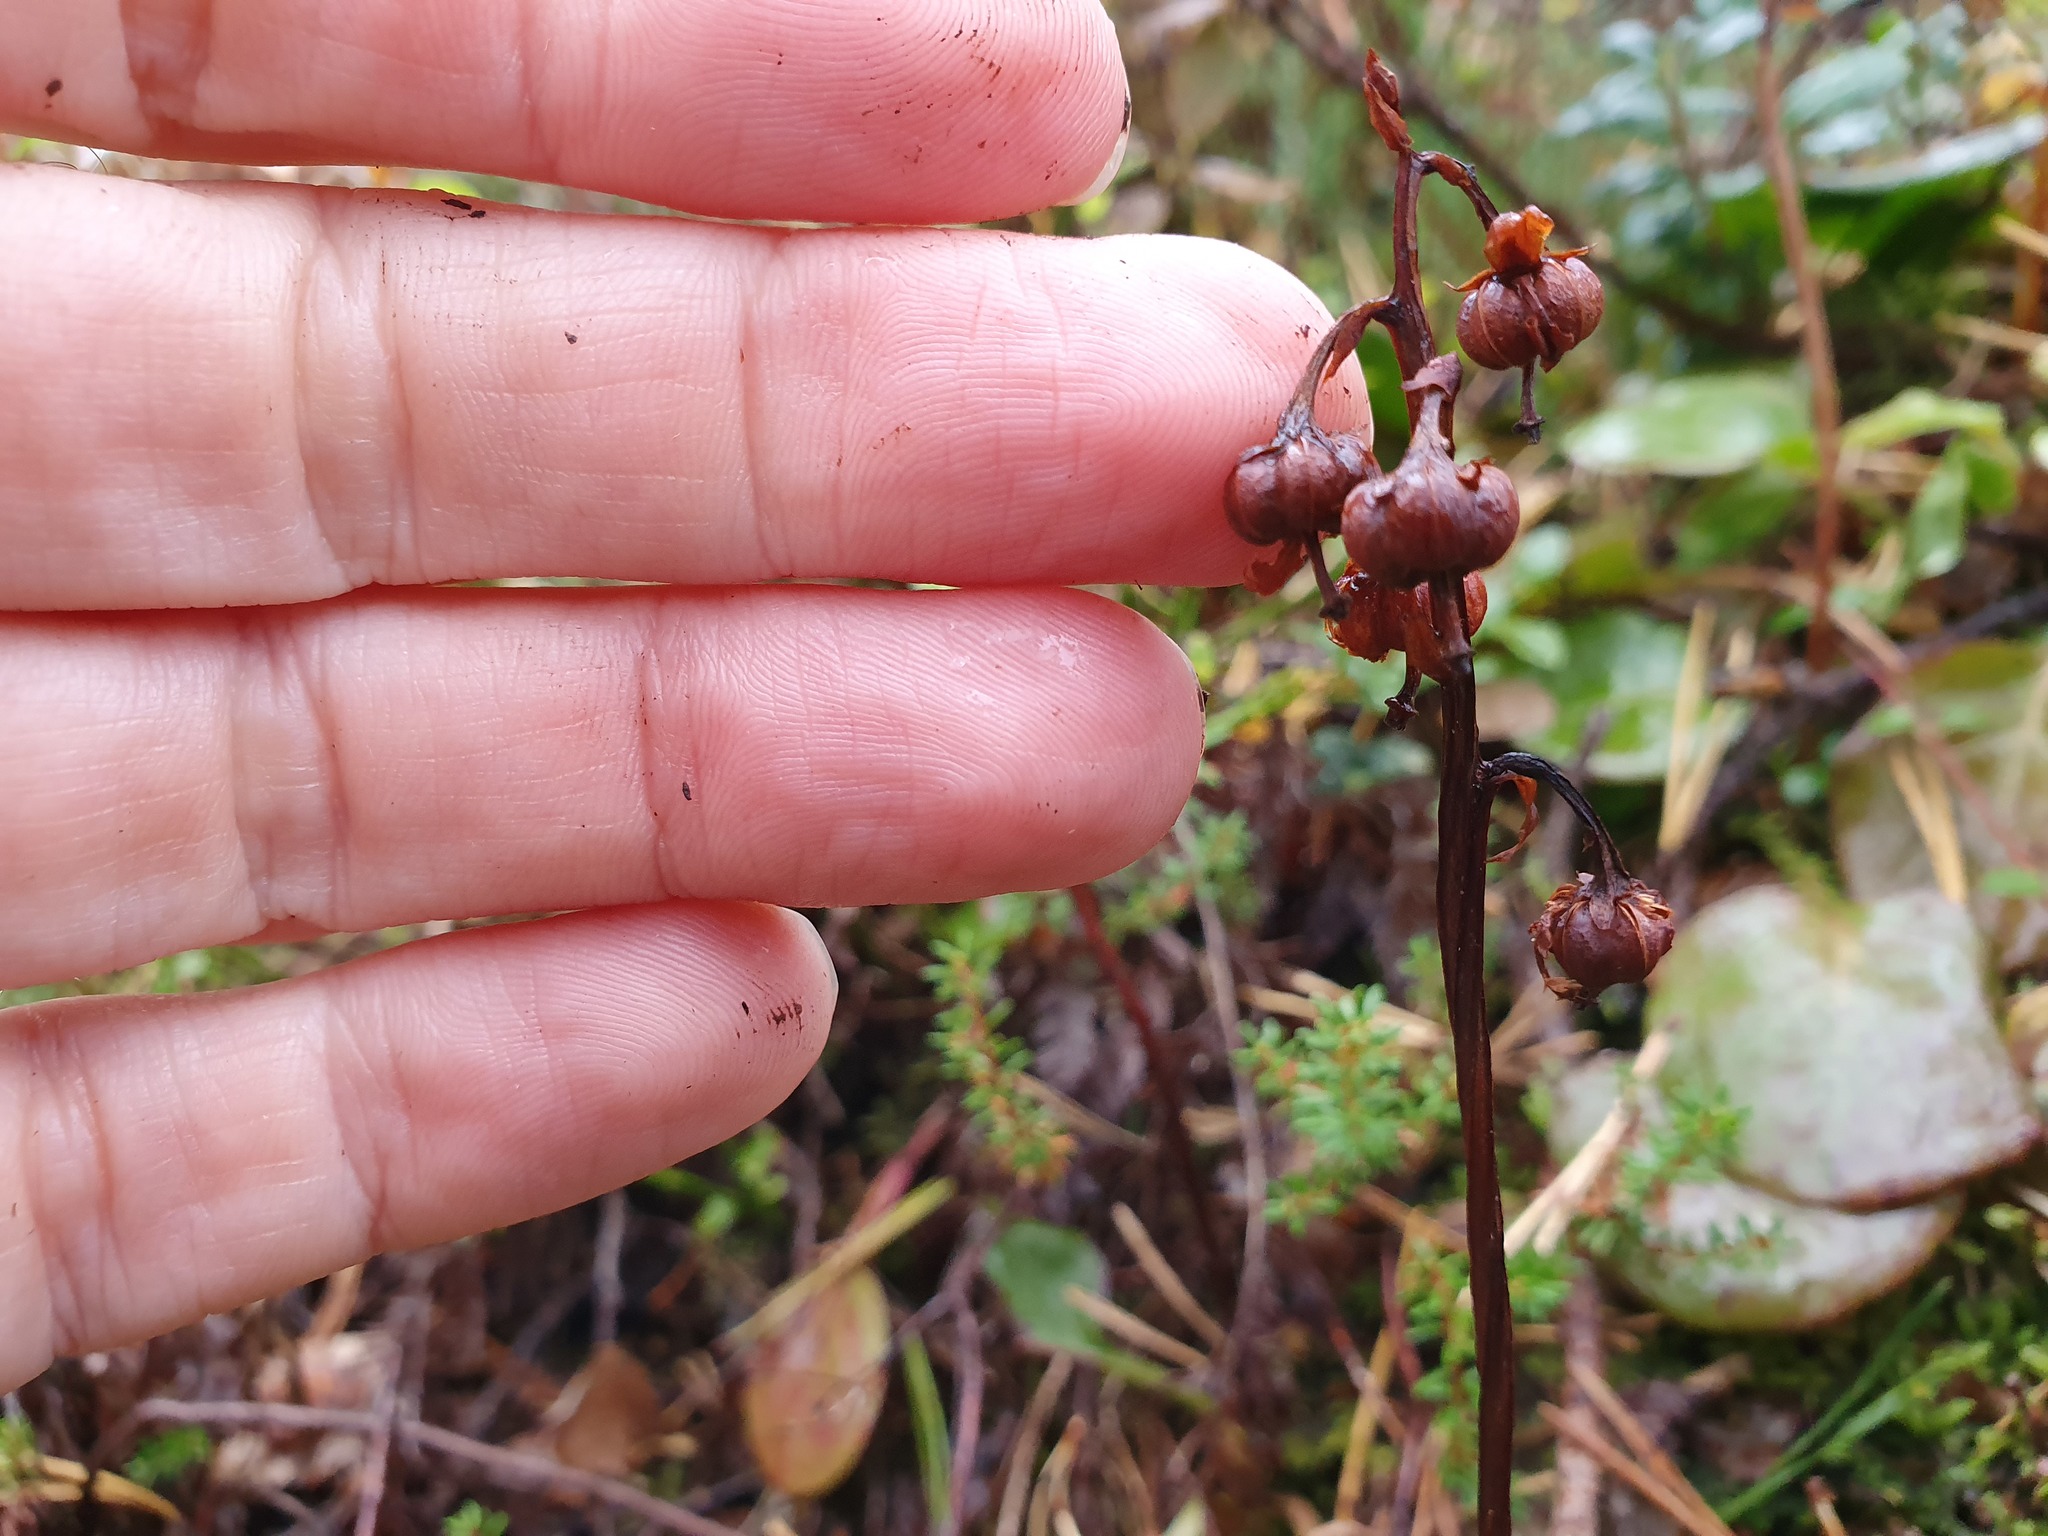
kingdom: Plantae
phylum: Tracheophyta
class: Magnoliopsida
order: Ericales
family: Ericaceae
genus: Pyrola
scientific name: Pyrola media
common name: Intermediate wintergreen
